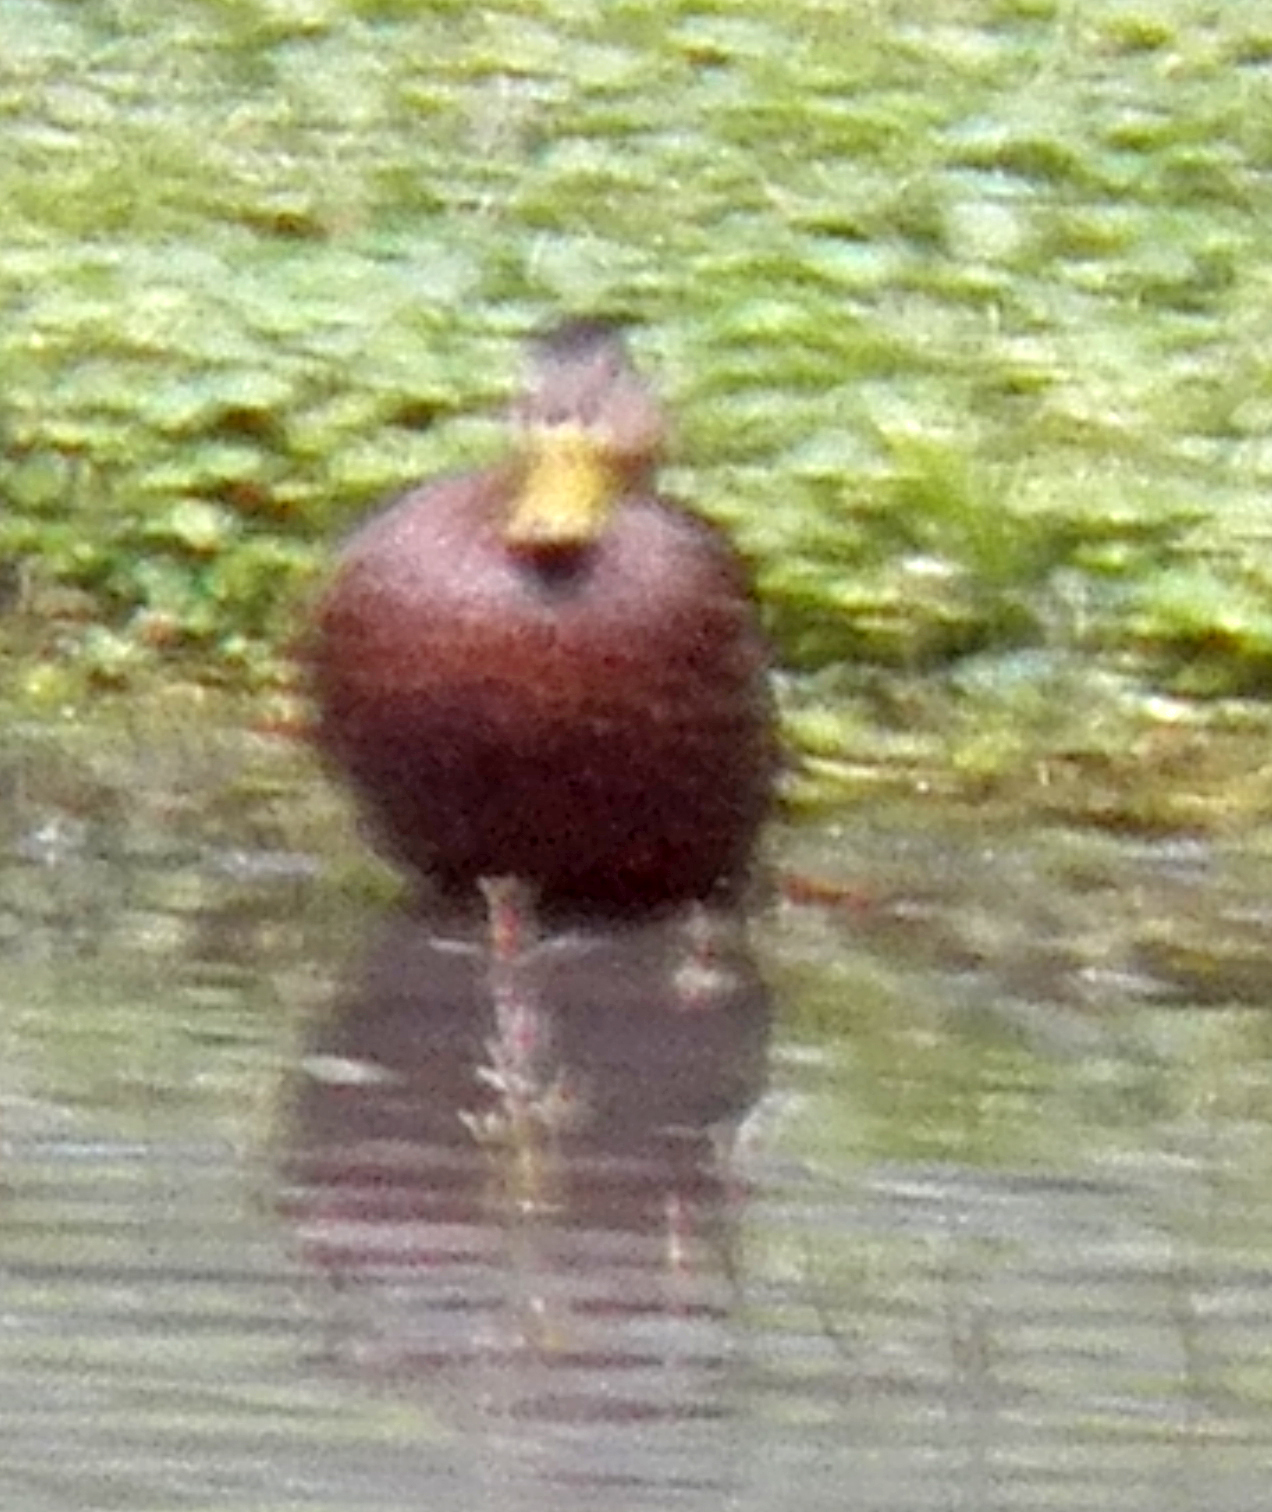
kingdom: Animalia
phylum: Chordata
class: Aves
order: Anseriformes
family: Anatidae
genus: Anas
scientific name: Anas fulvigula
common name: Mottled duck
